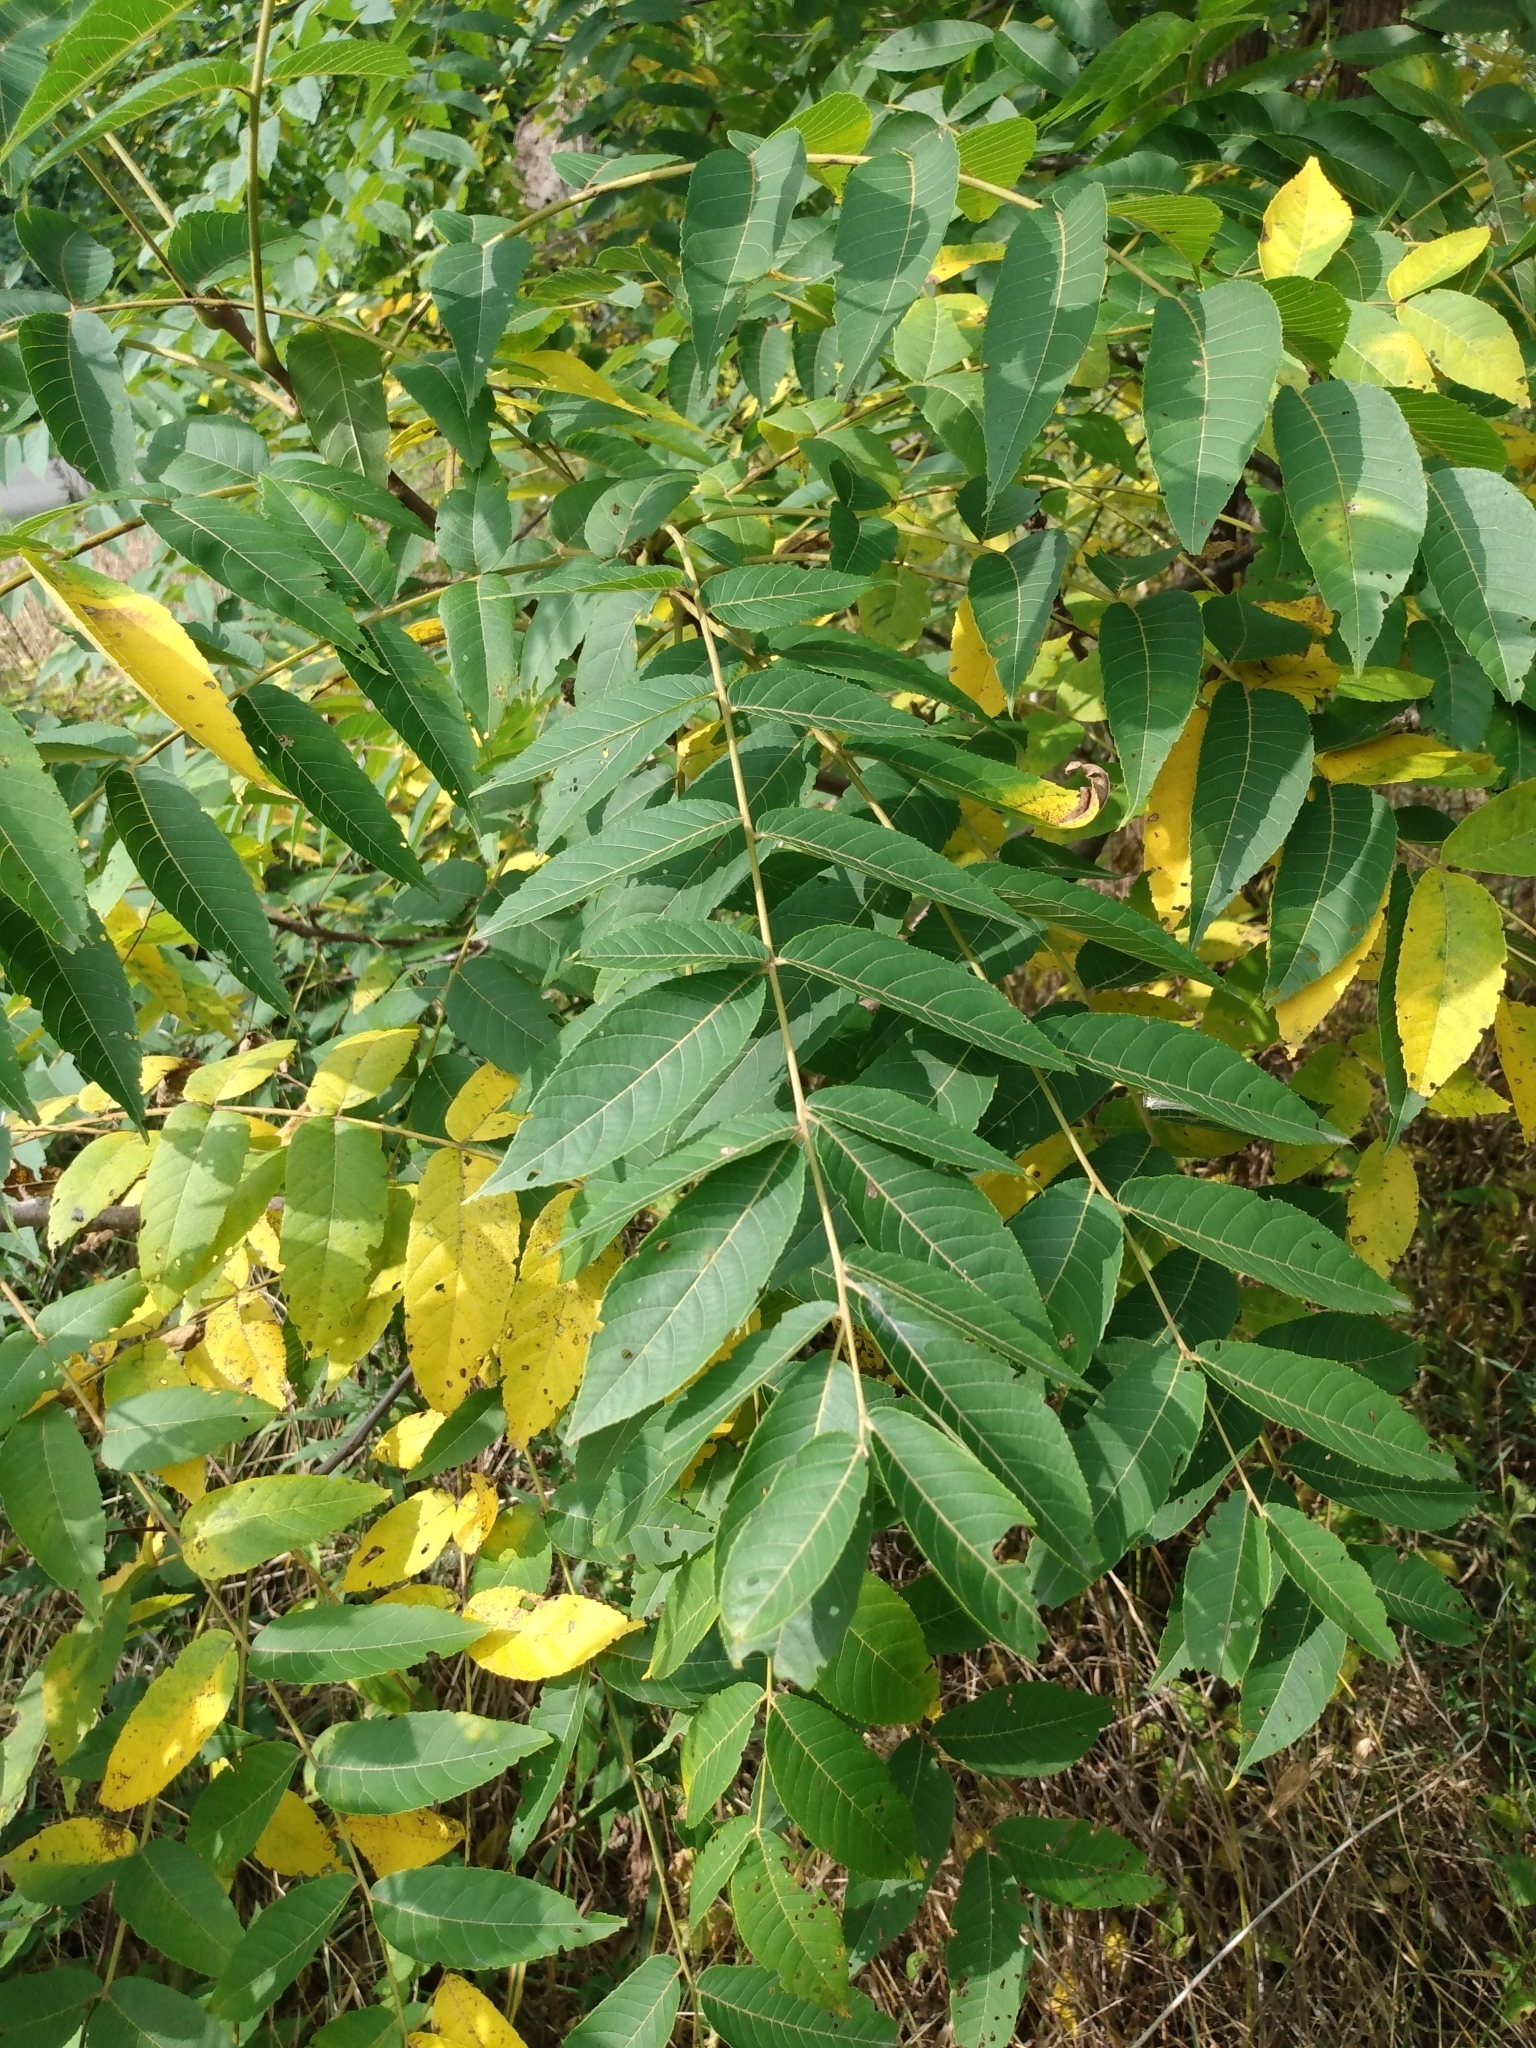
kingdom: Plantae
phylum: Tracheophyta
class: Magnoliopsida
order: Fagales
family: Juglandaceae
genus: Juglans
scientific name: Juglans nigra
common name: Black walnut
